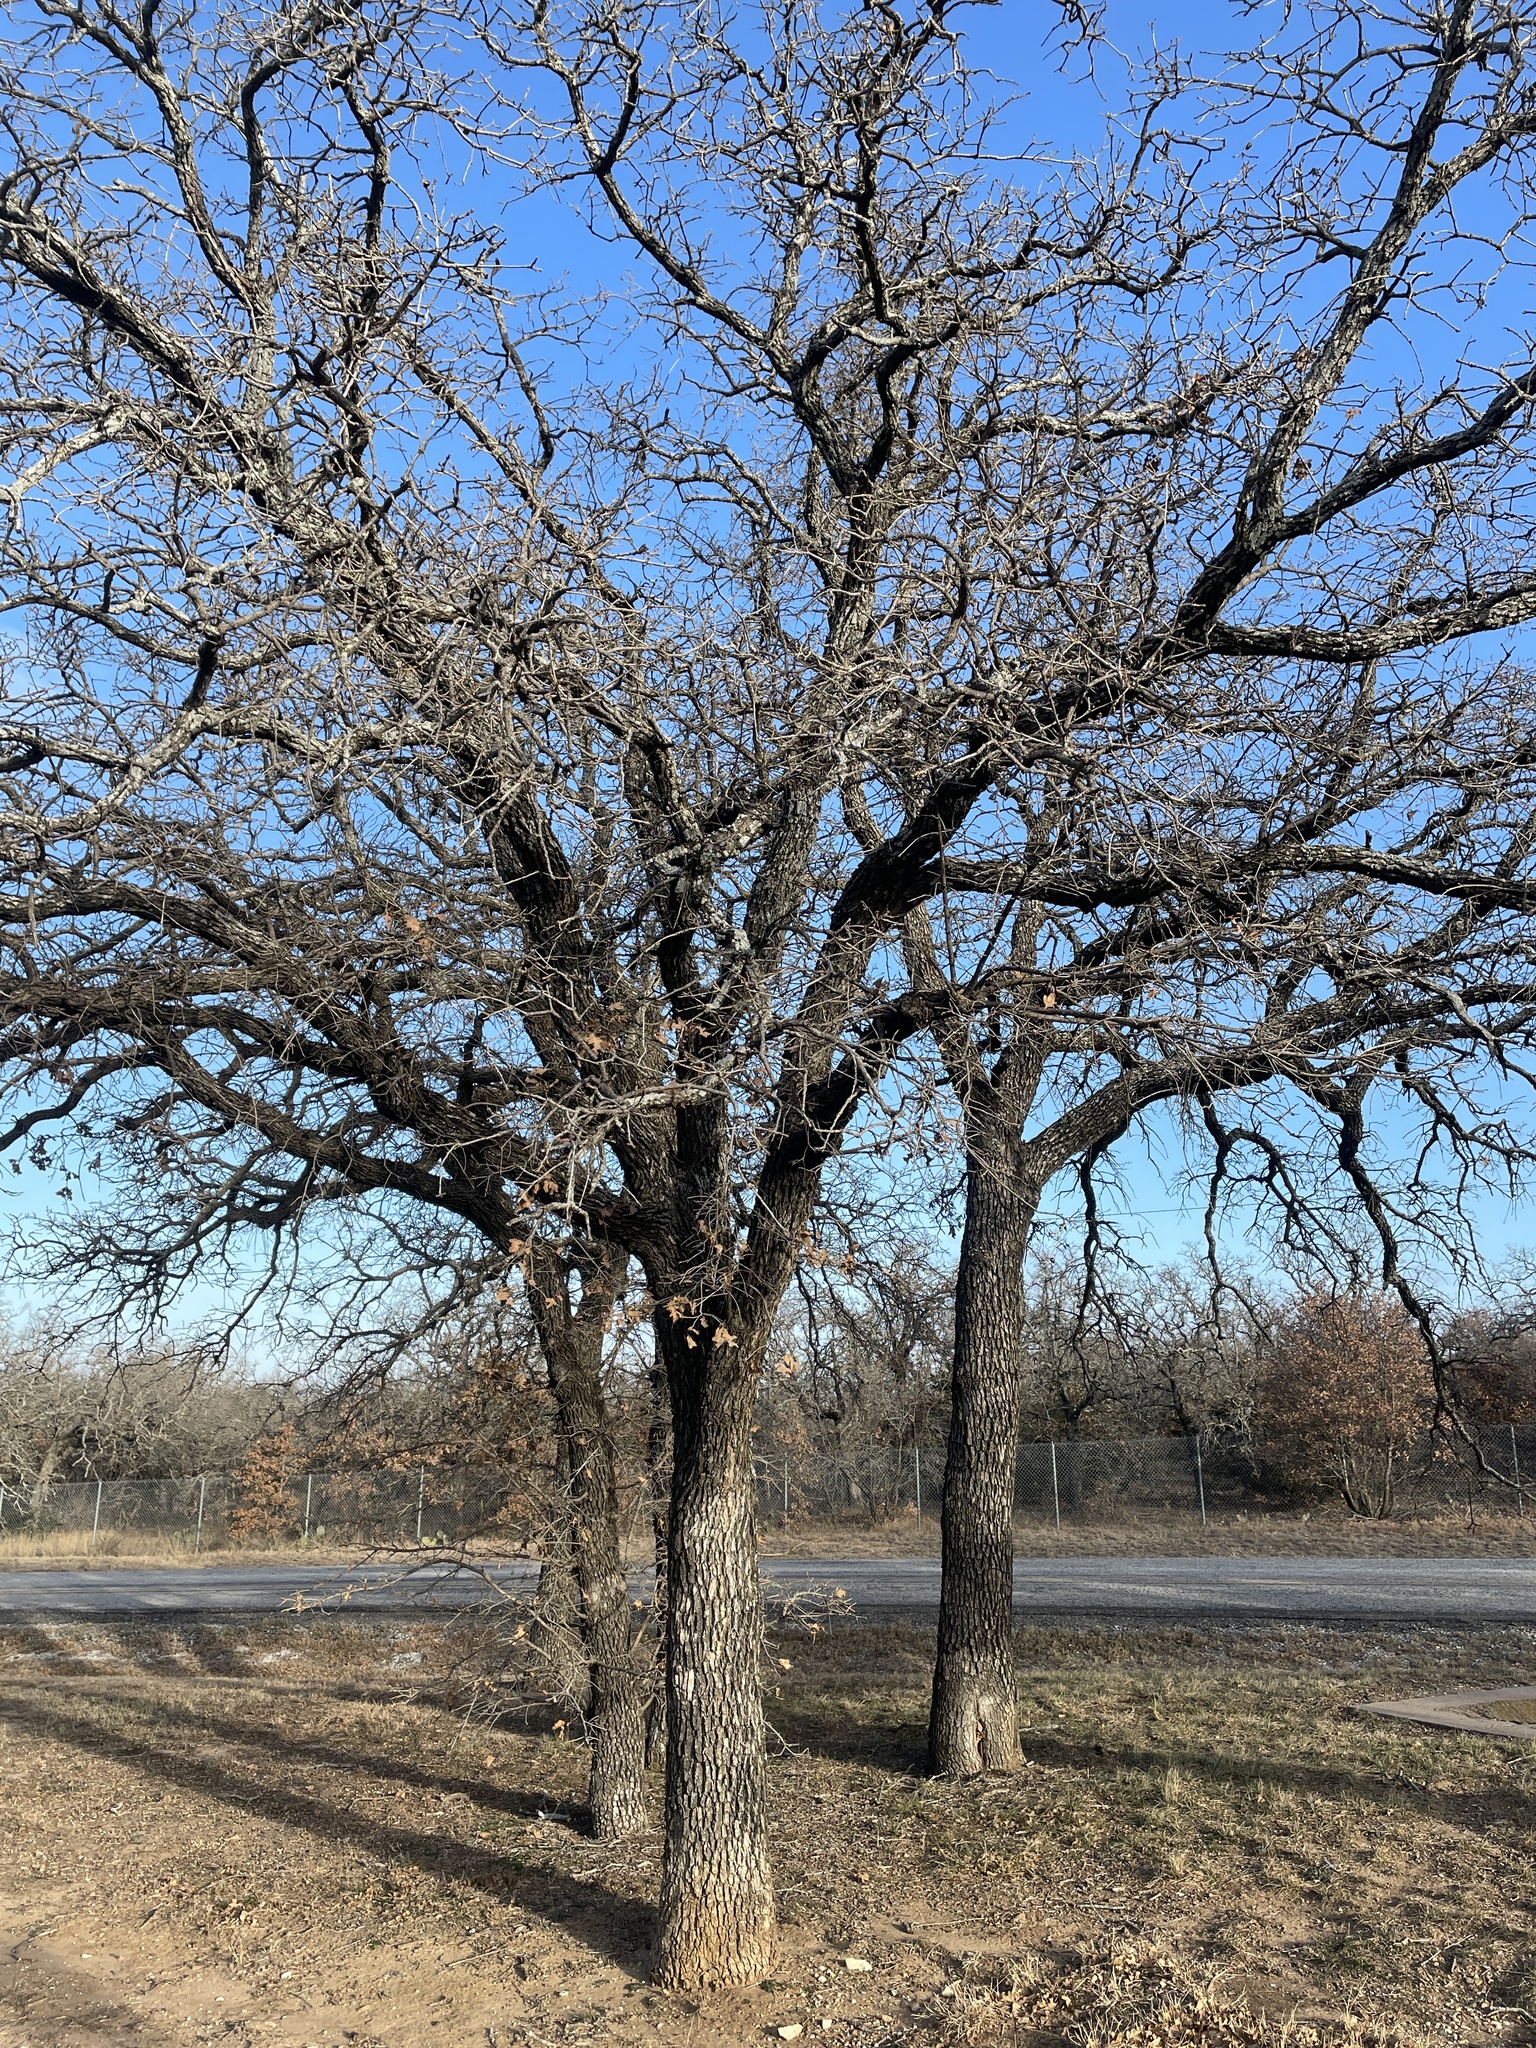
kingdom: Plantae
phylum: Tracheophyta
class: Magnoliopsida
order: Fagales
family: Fagaceae
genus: Quercus
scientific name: Quercus stellata
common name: Post oak
